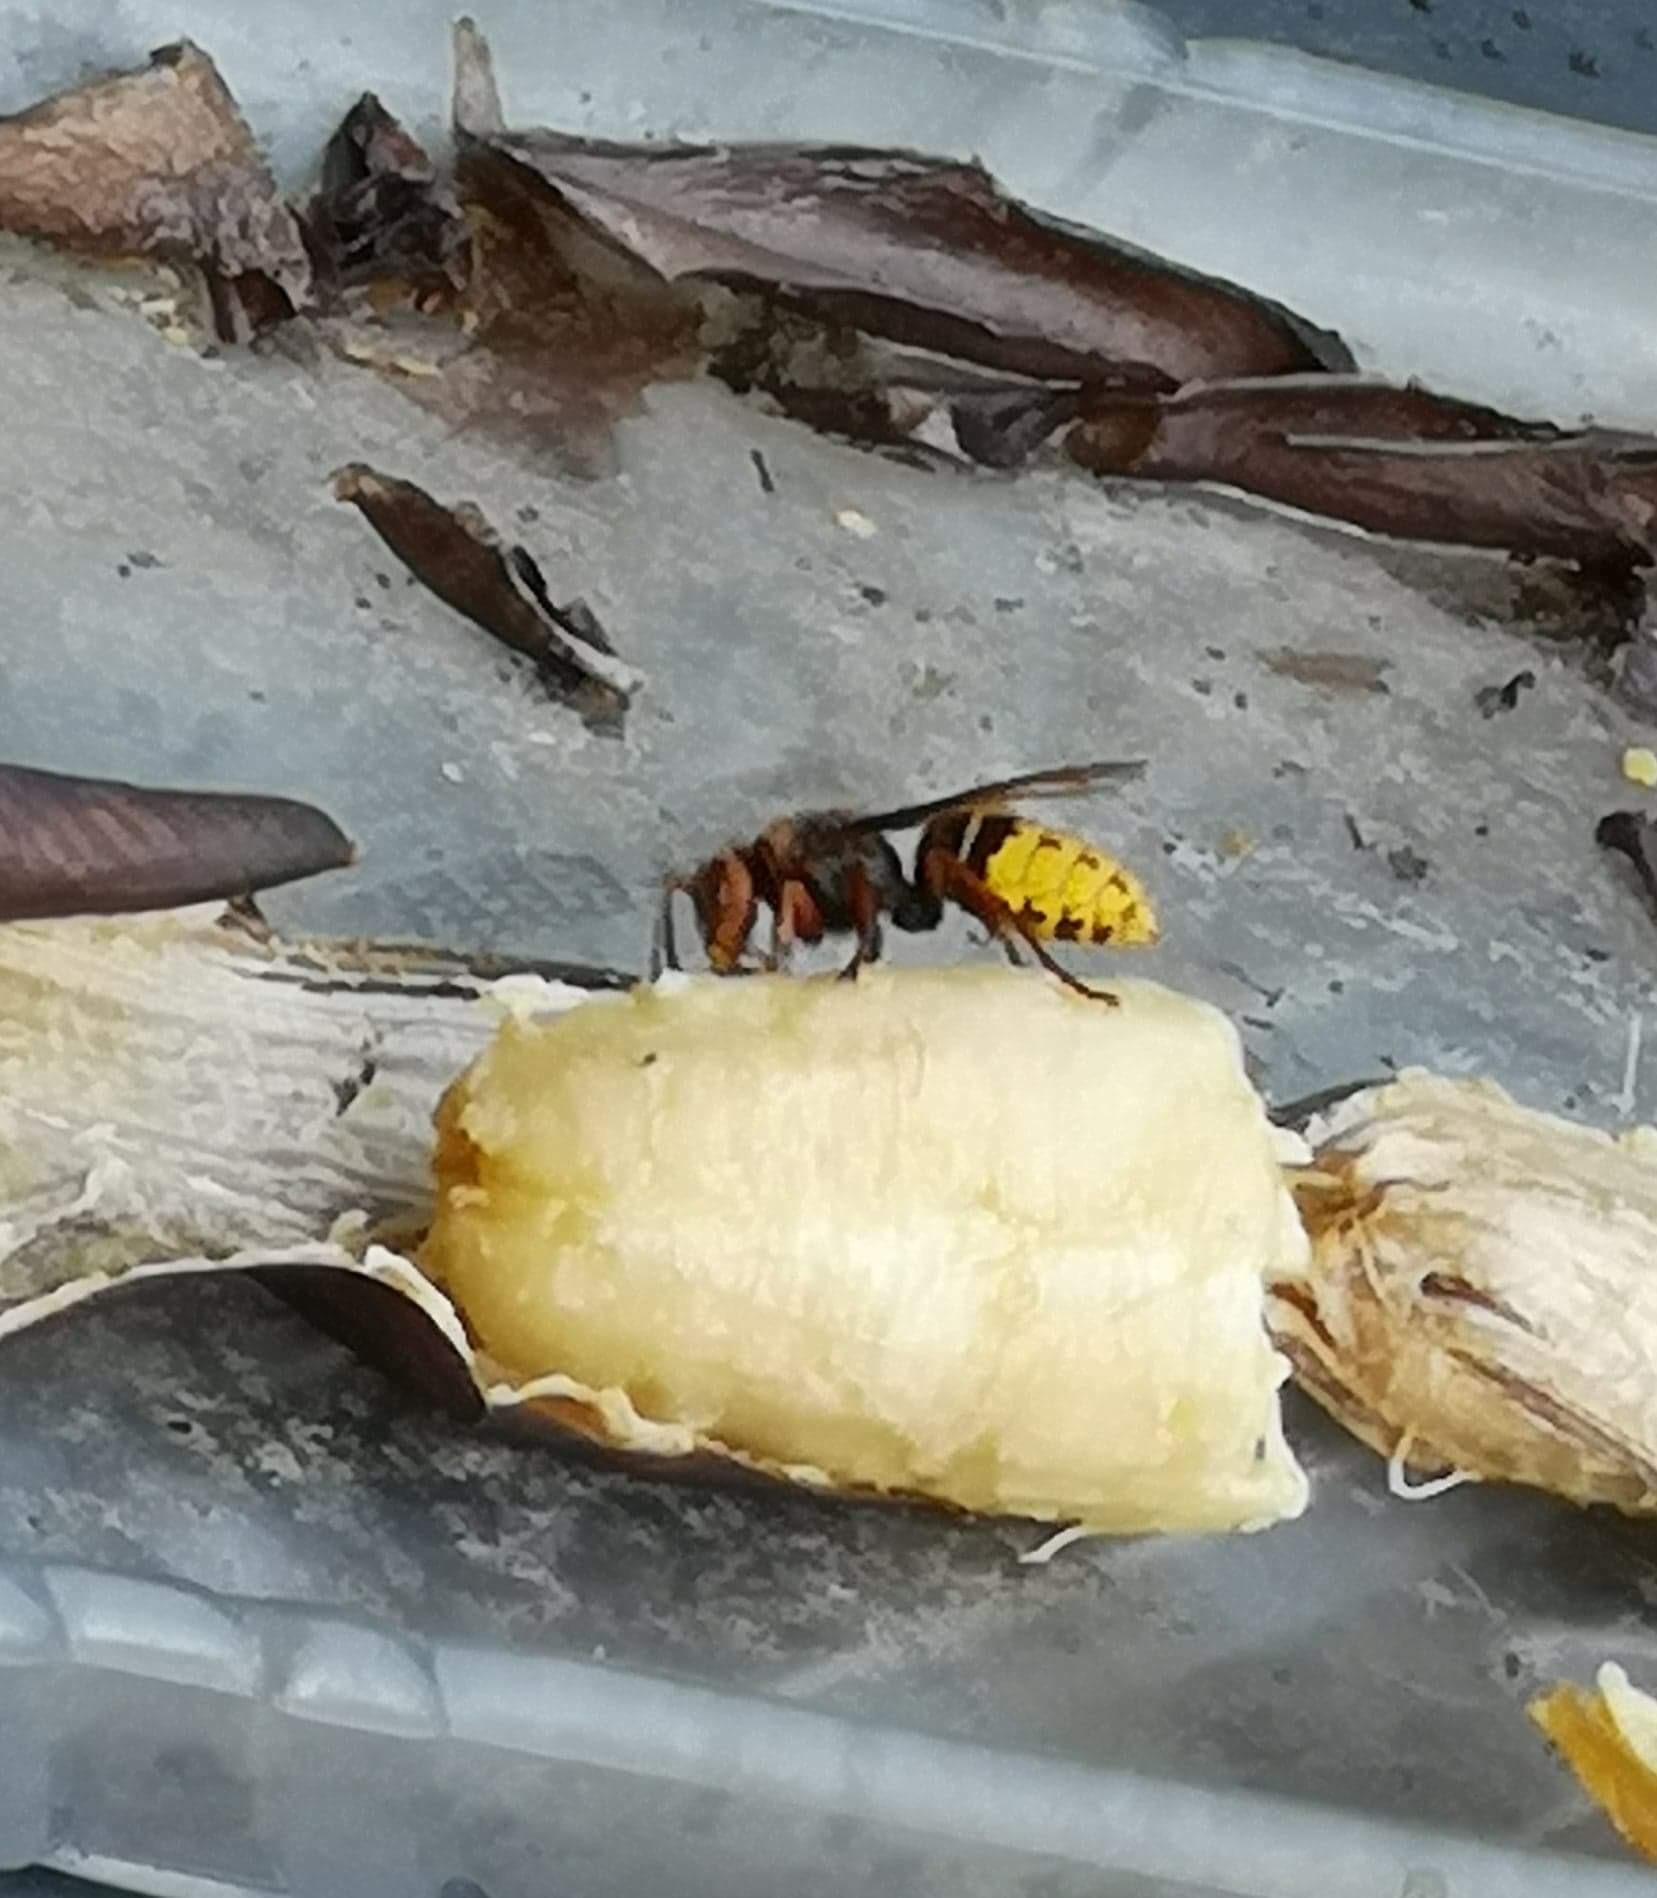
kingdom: Animalia
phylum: Arthropoda
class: Insecta
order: Hymenoptera
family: Vespidae
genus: Vespa
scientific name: Vespa crabro
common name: Hornet
